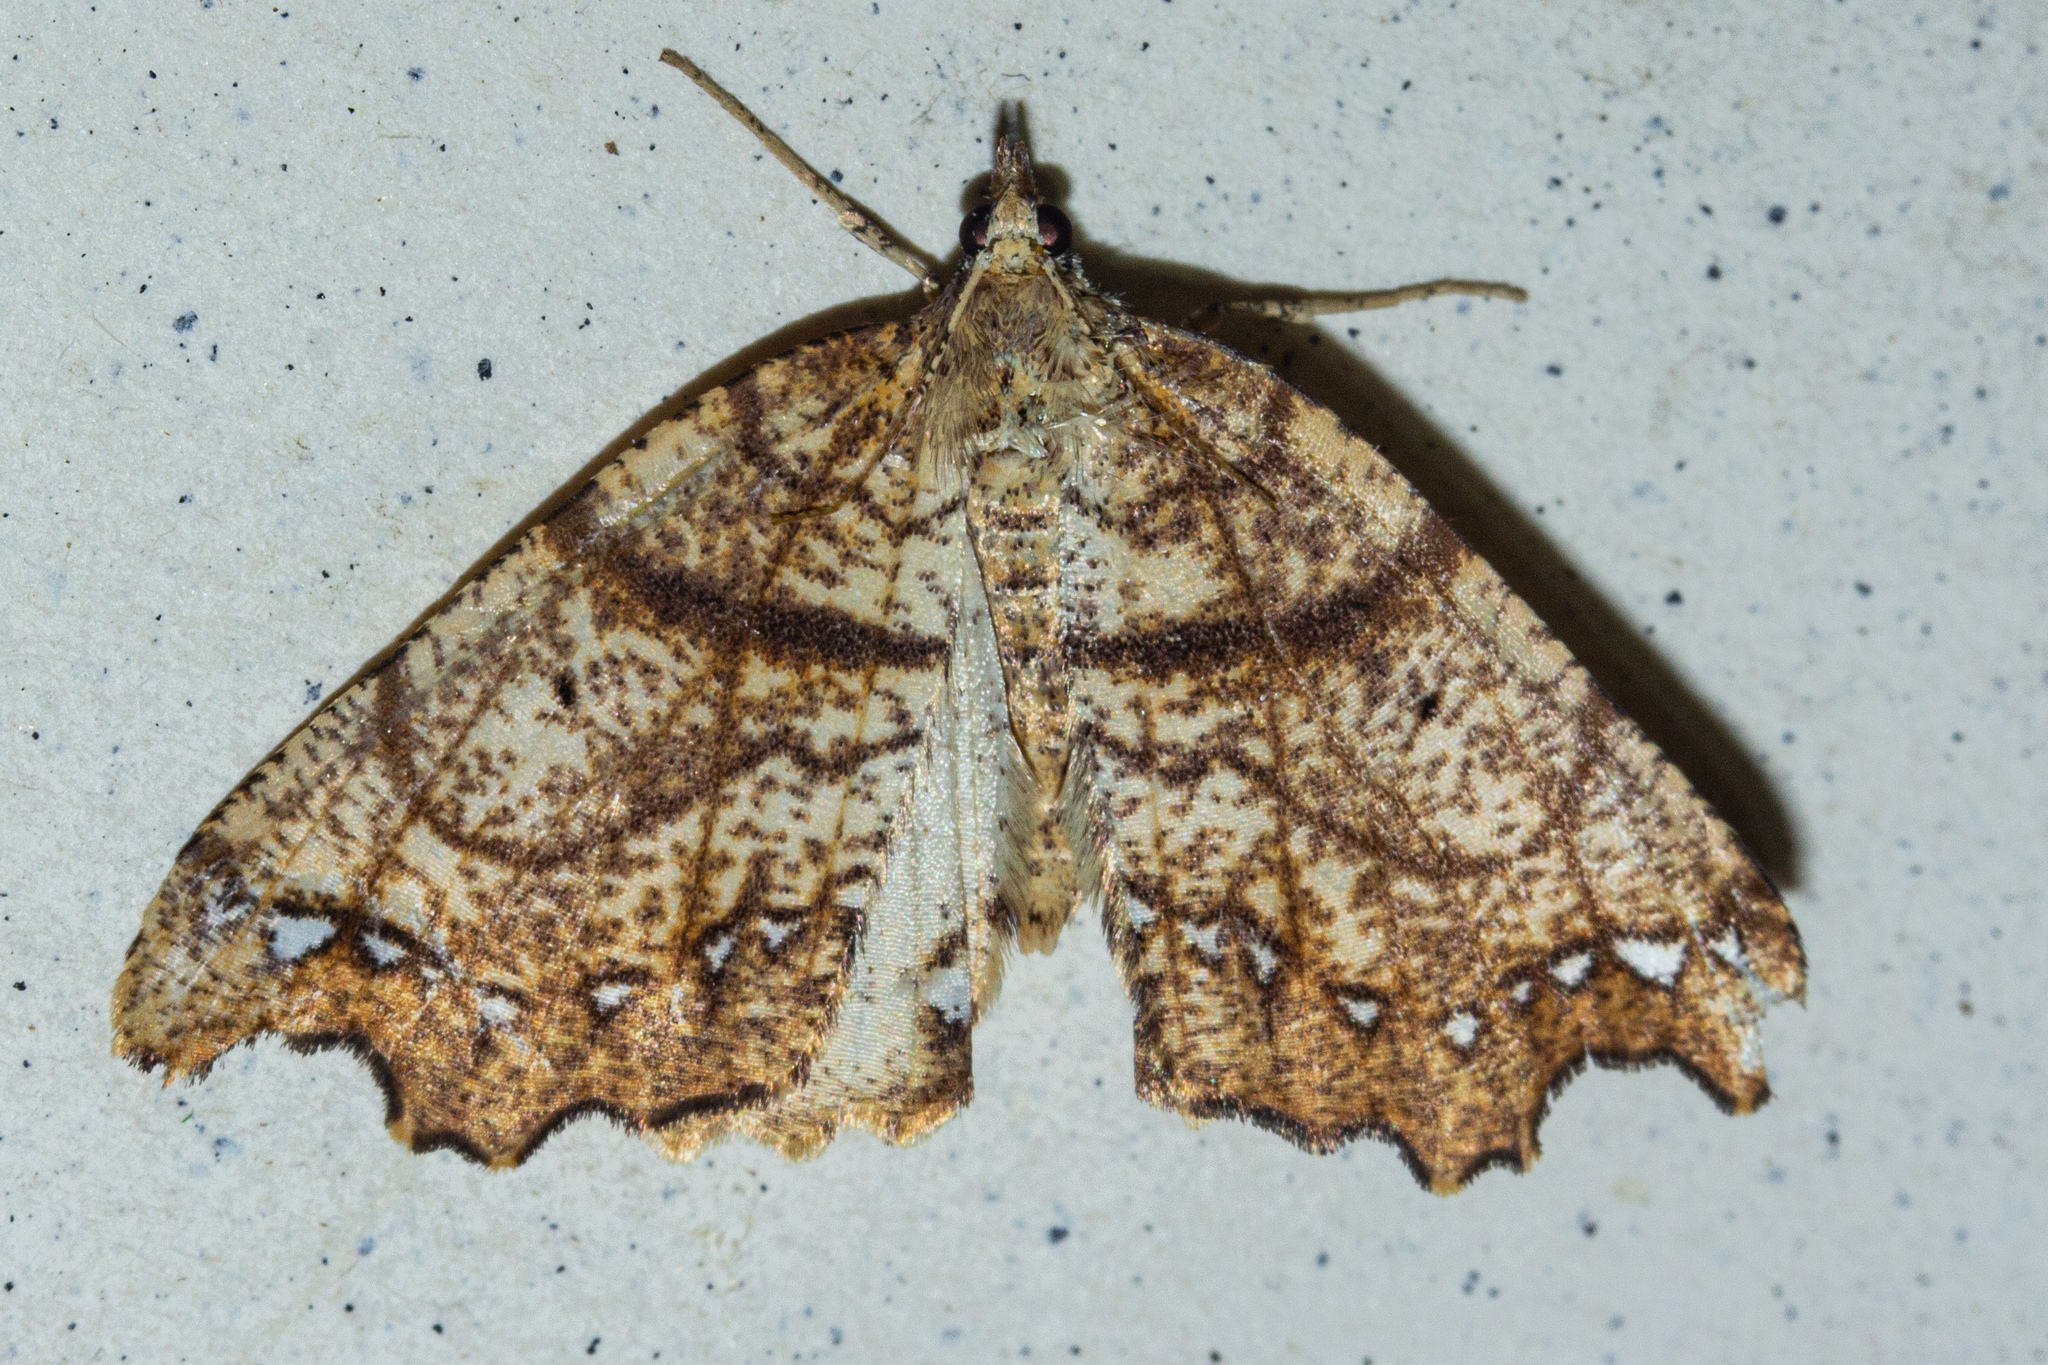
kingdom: Animalia
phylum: Arthropoda
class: Insecta
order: Lepidoptera
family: Geometridae
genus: Chalastra
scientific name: Chalastra pellurgata
